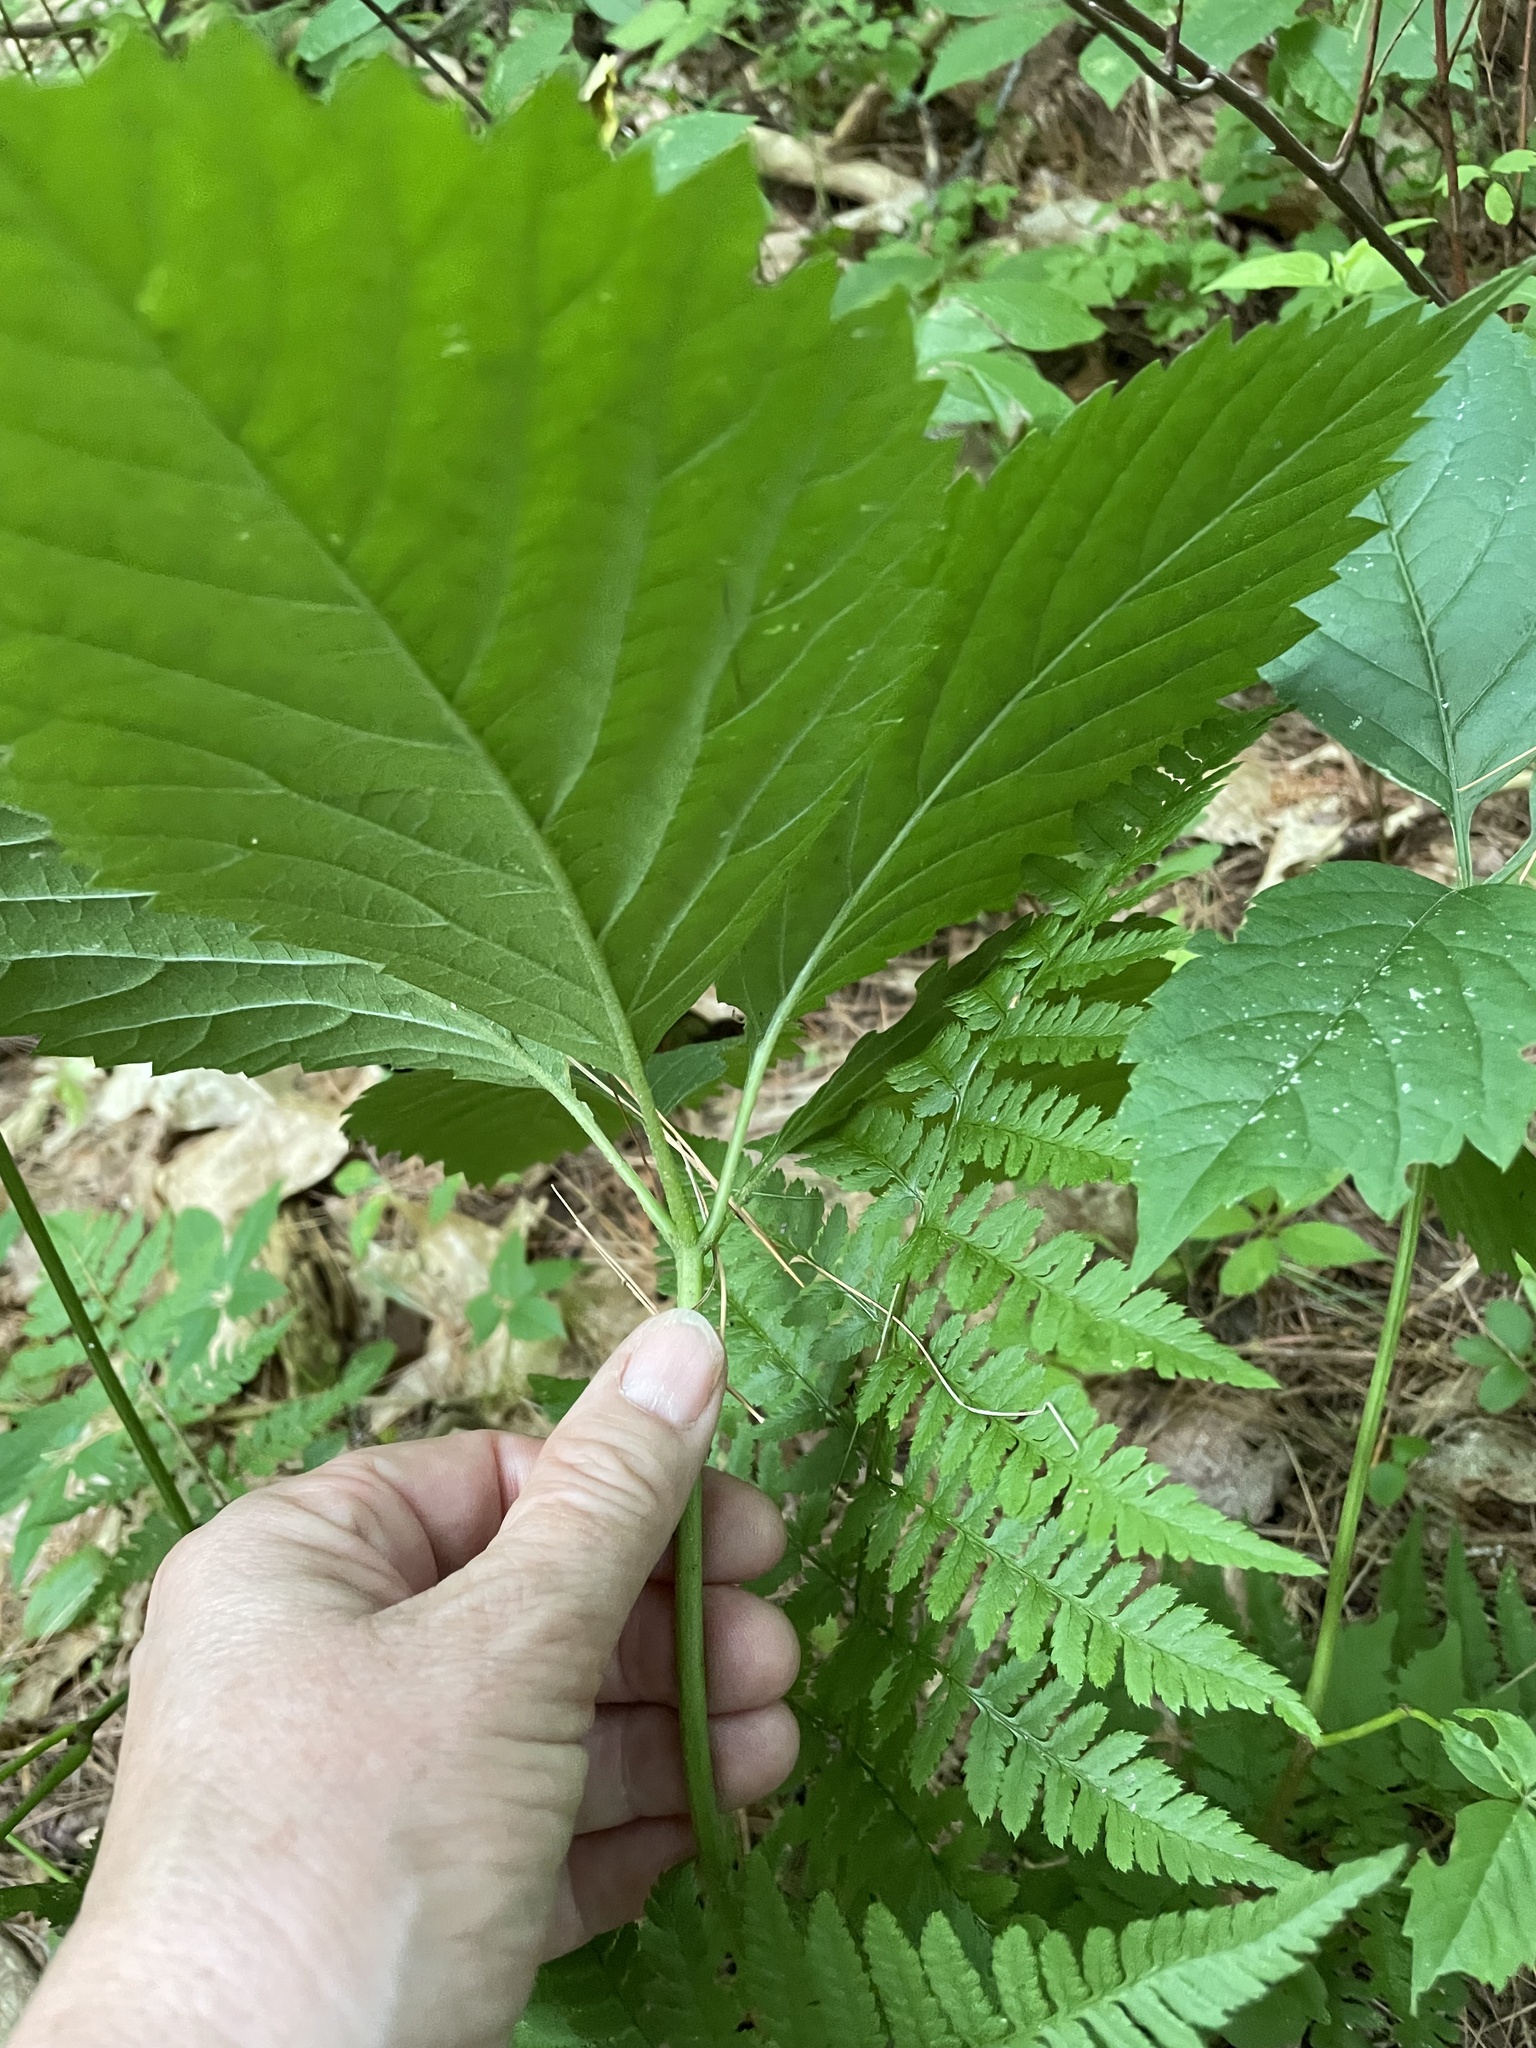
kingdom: Plantae
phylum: Tracheophyta
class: Magnoliopsida
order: Vitales
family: Vitaceae
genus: Parthenocissus
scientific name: Parthenocissus inserta
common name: False virginia-creeper
